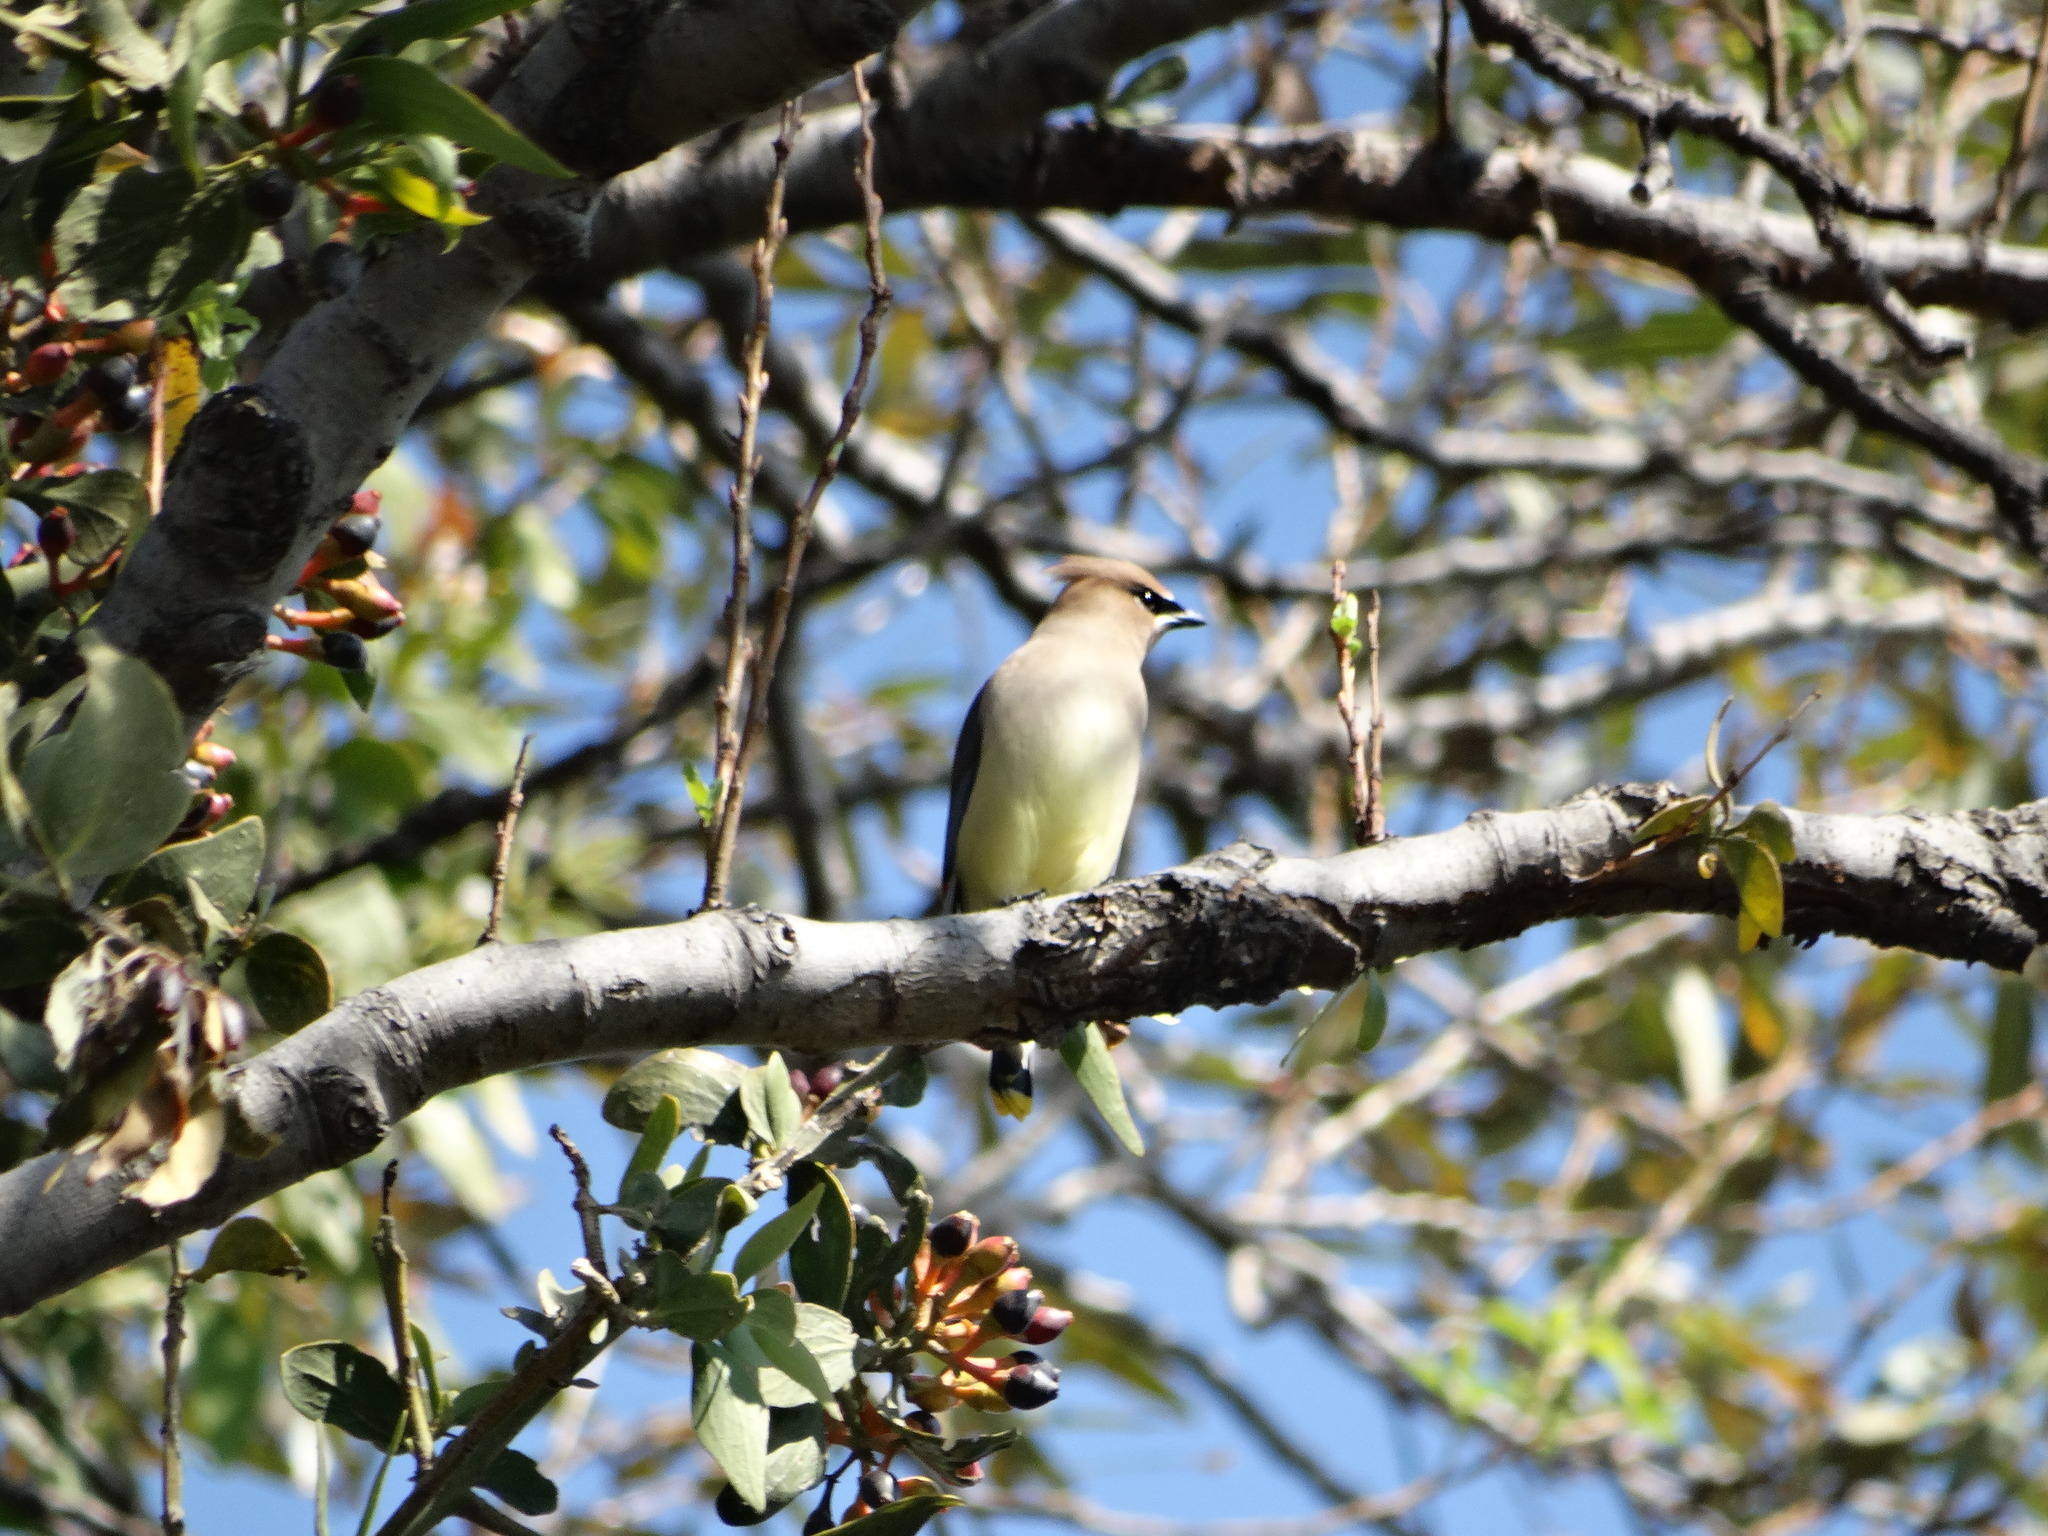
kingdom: Animalia
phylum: Chordata
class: Aves
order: Passeriformes
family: Bombycillidae
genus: Bombycilla
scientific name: Bombycilla cedrorum
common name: Cedar waxwing
